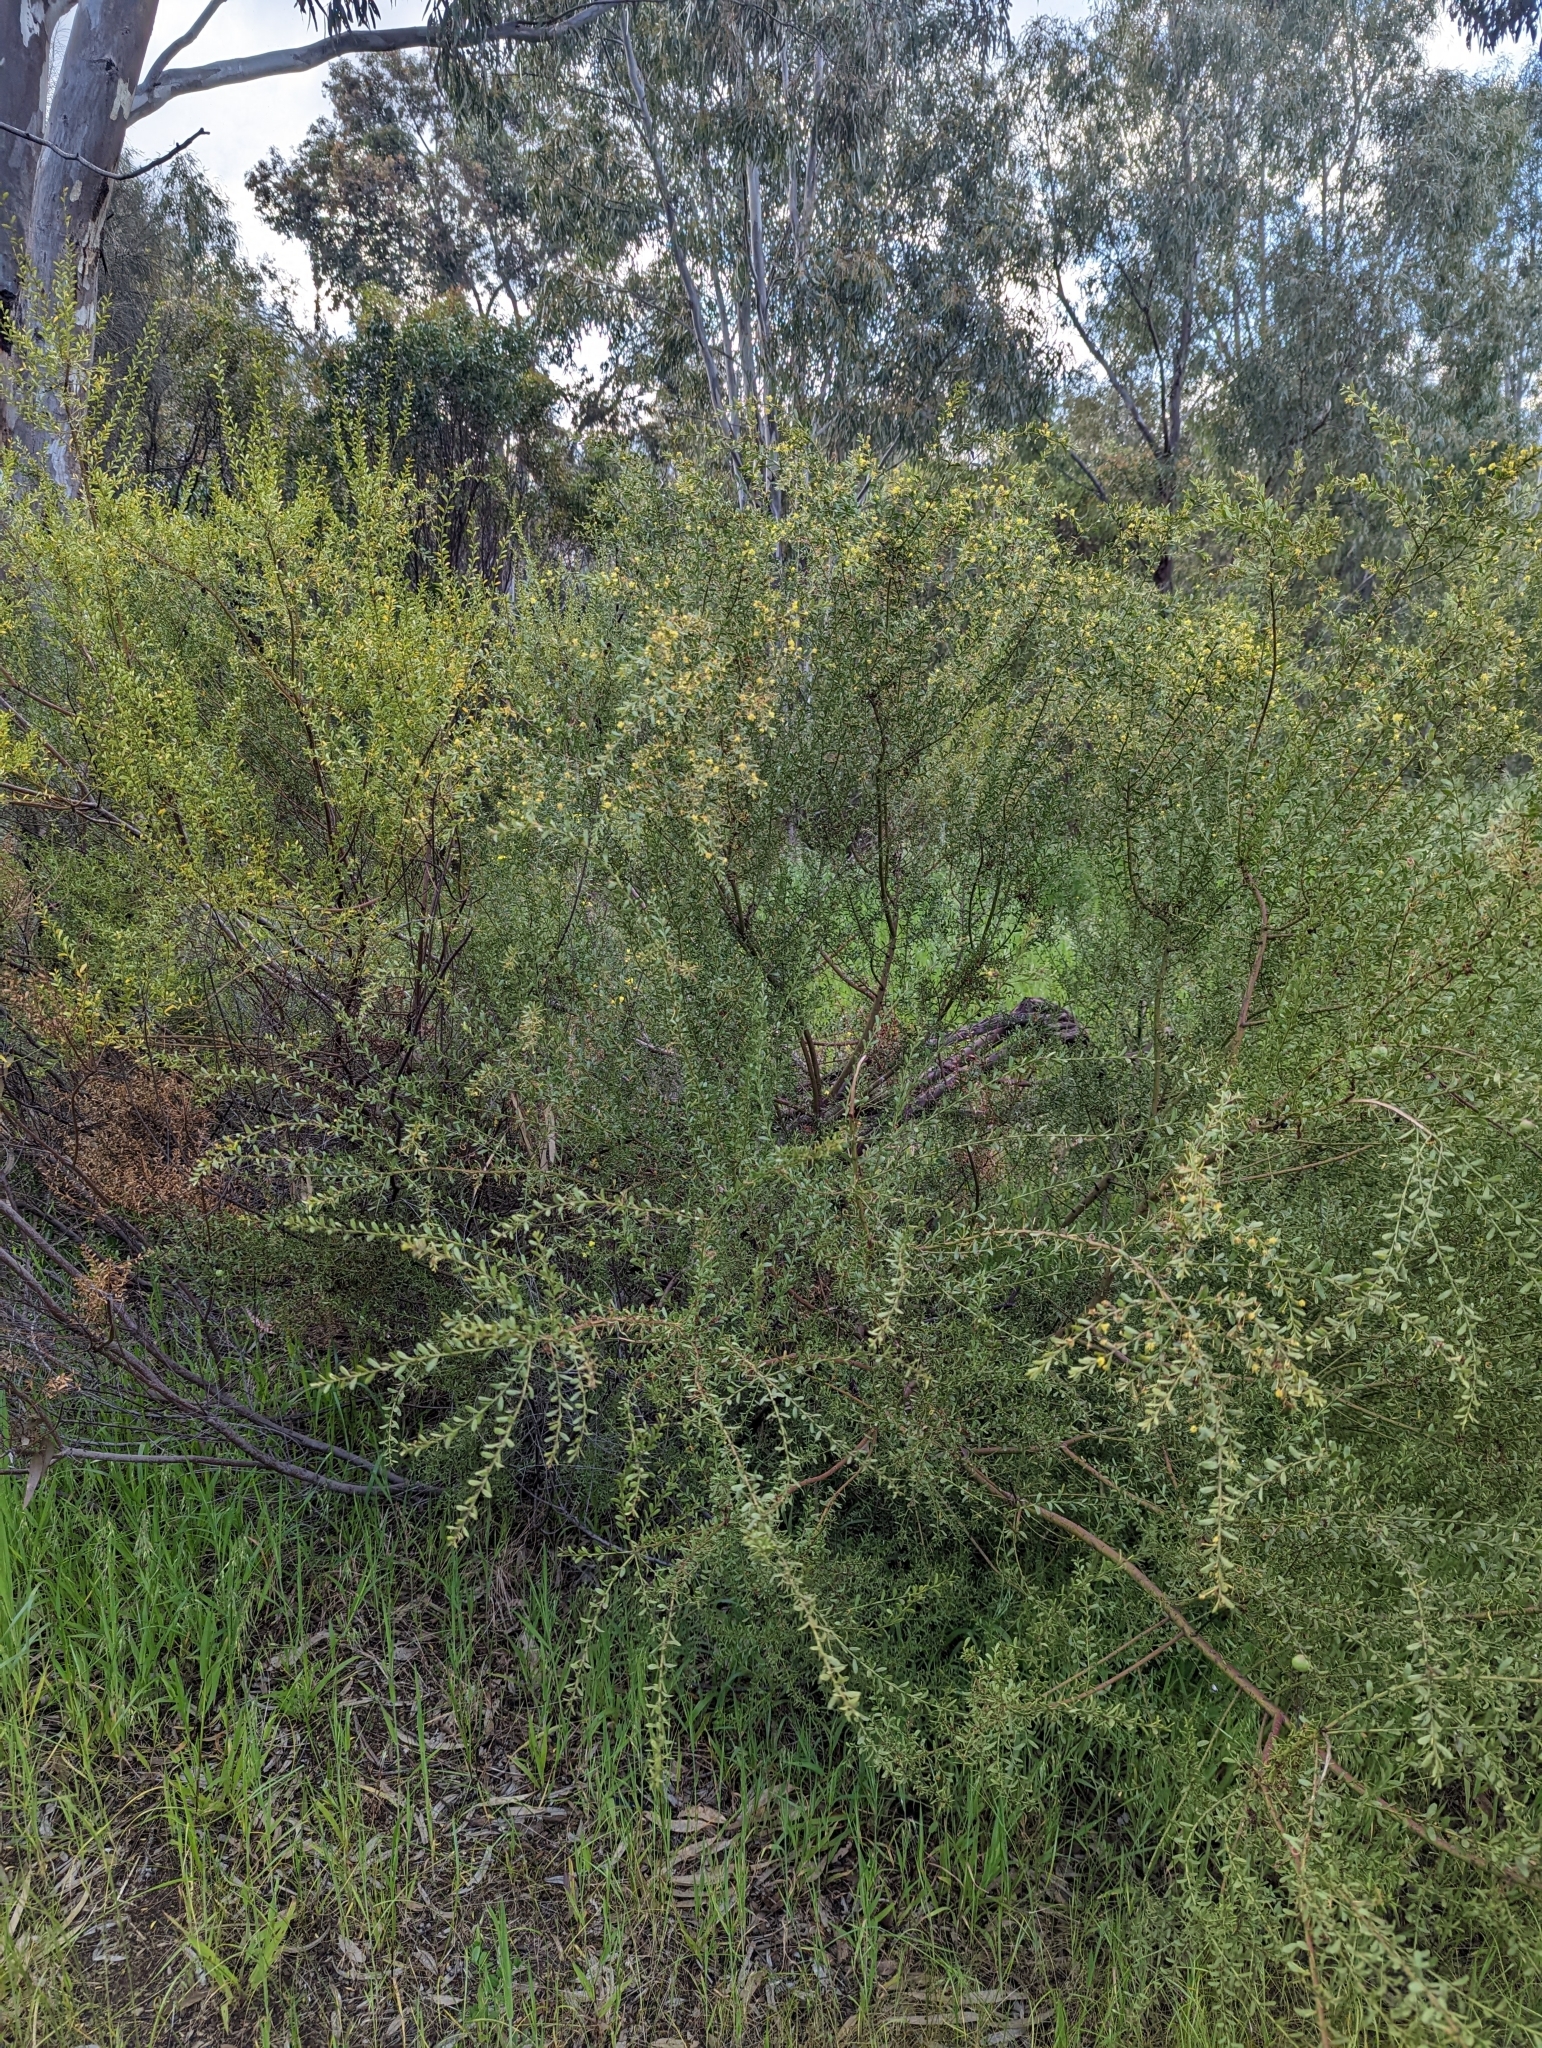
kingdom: Plantae
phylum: Tracheophyta
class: Magnoliopsida
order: Fabales
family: Fabaceae
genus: Acacia
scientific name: Acacia acinacea
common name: Gold-dust acacia
